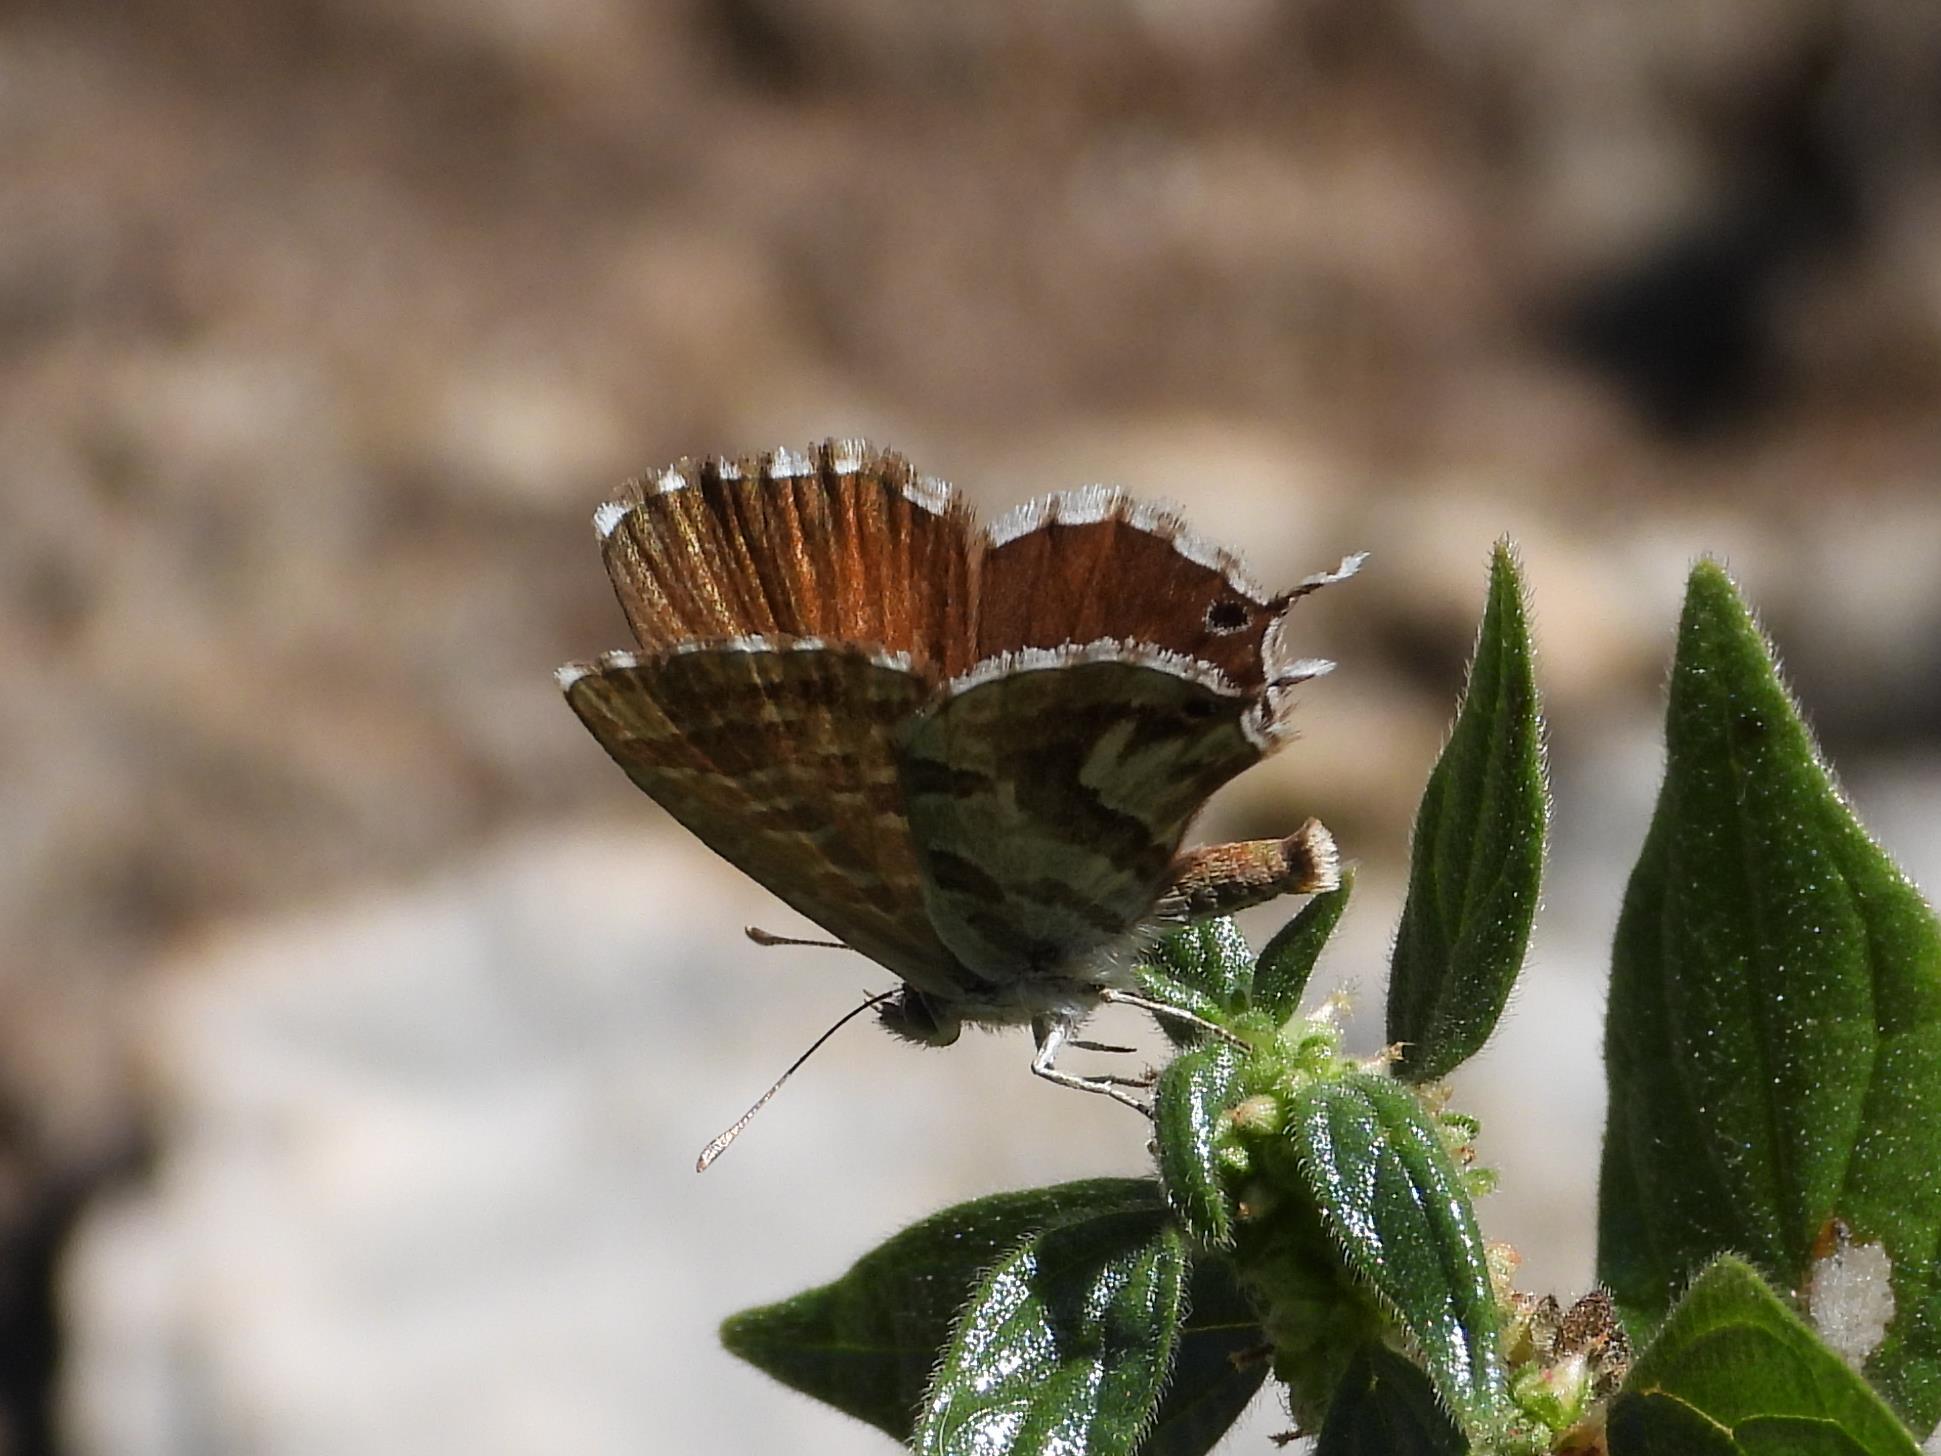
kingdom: Animalia
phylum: Arthropoda
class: Insecta
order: Lepidoptera
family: Lycaenidae
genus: Cacyreus
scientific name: Cacyreus marshalli
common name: Geranium bronze
